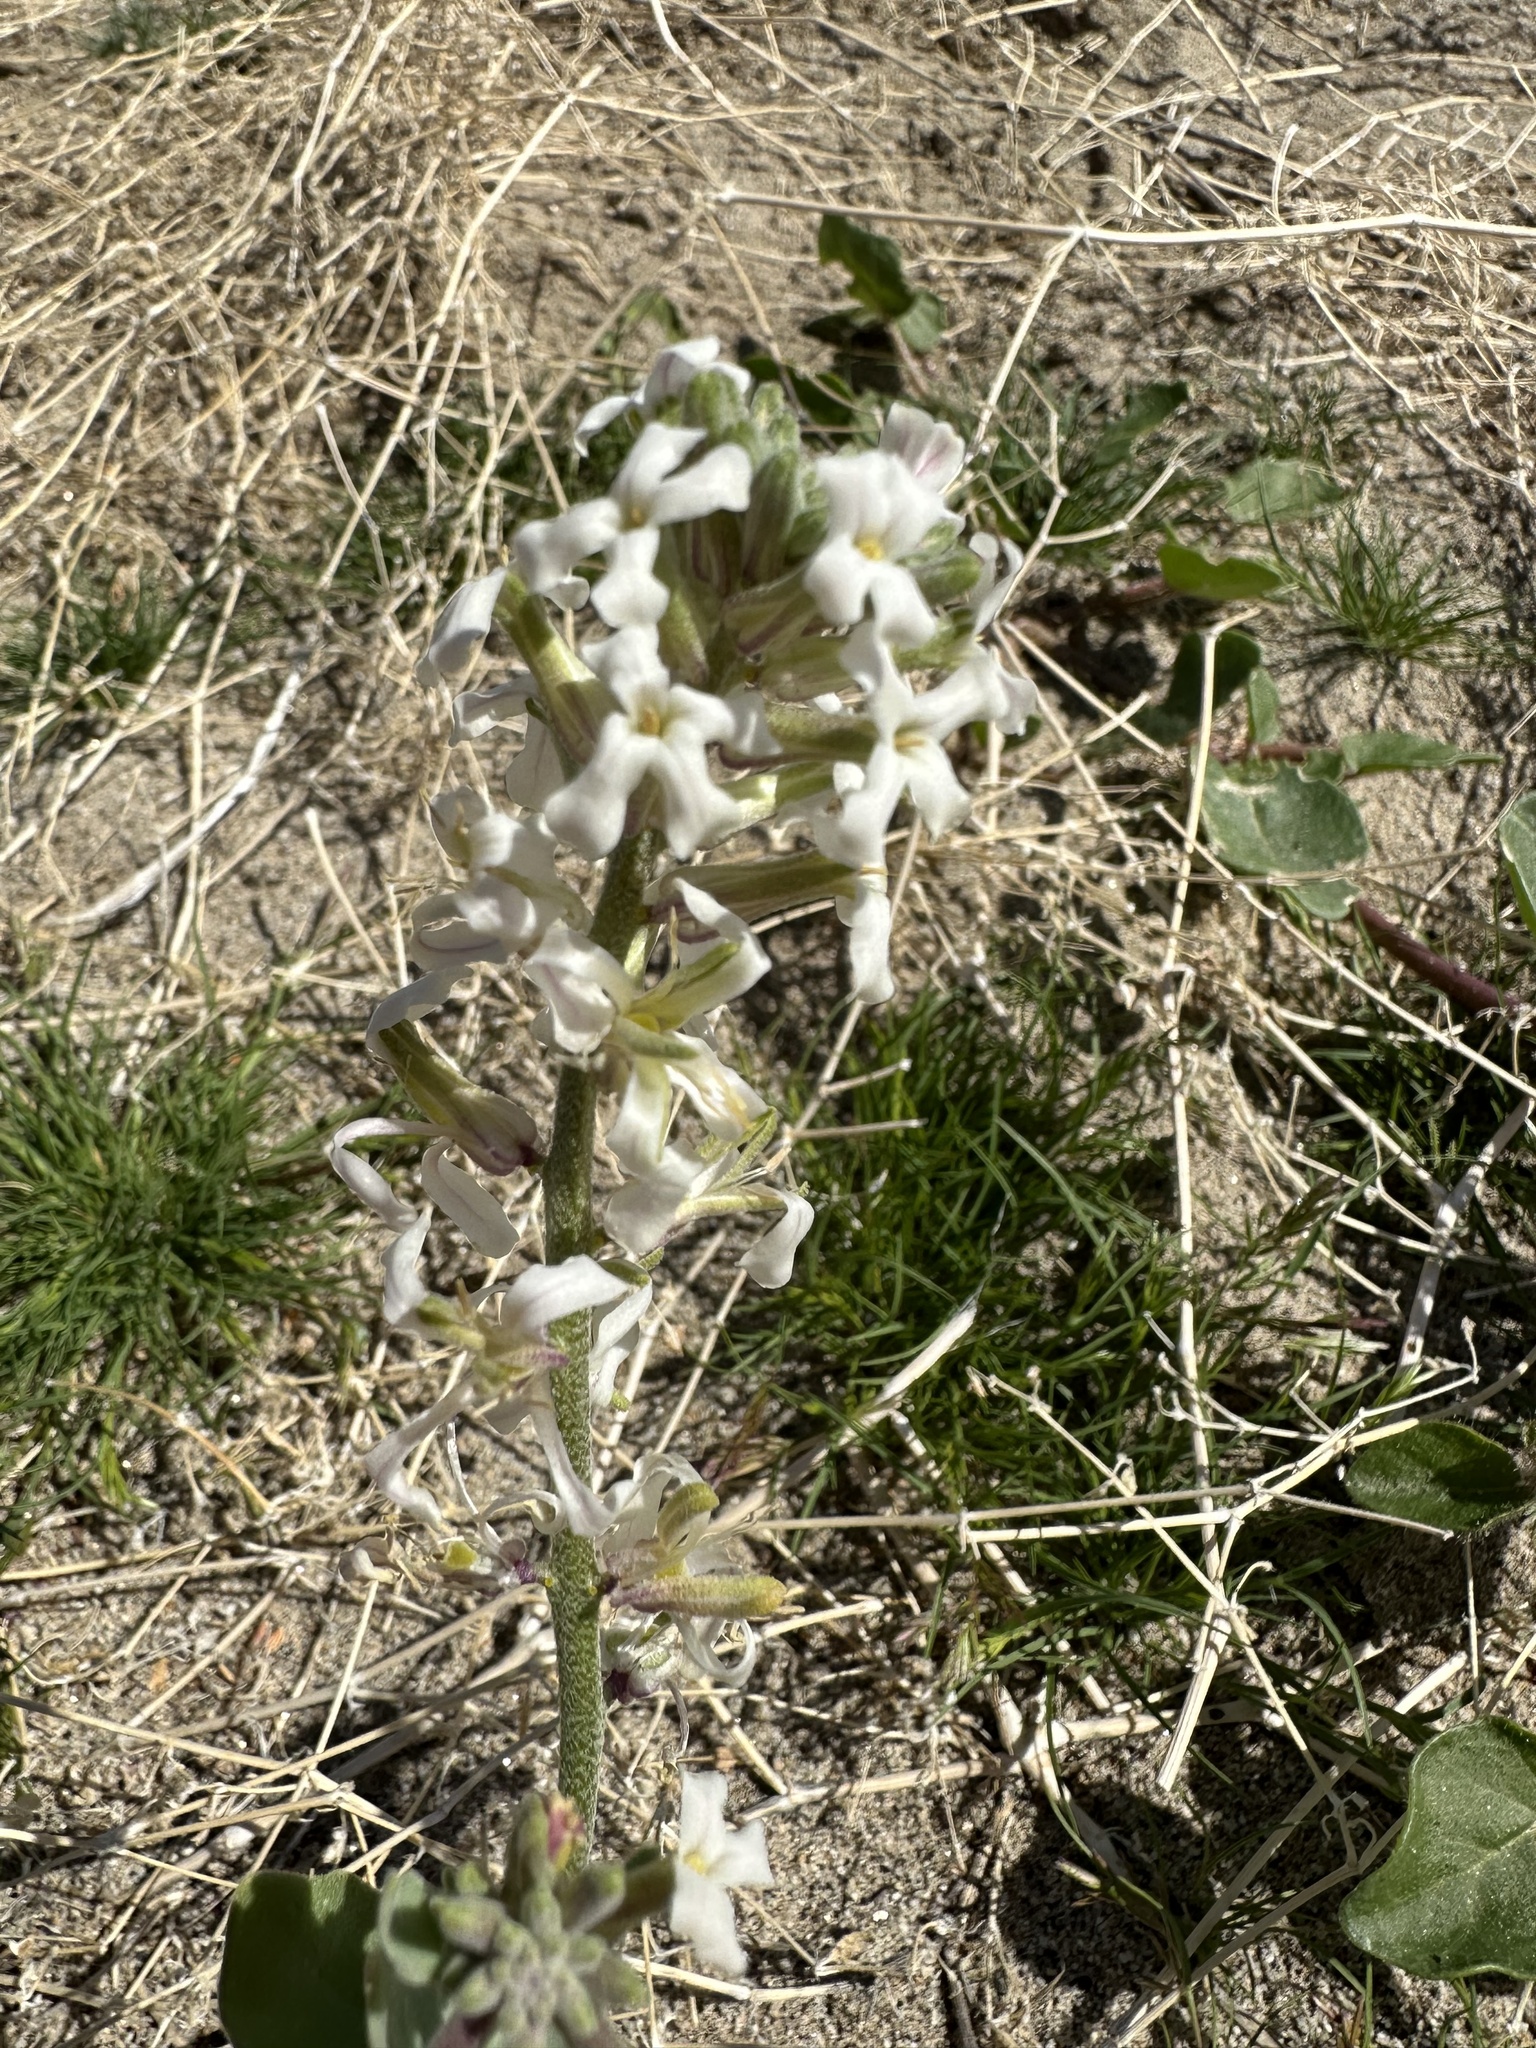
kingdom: Plantae
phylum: Tracheophyta
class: Magnoliopsida
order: Brassicales
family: Brassicaceae
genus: Dithyrea
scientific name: Dithyrea californica
